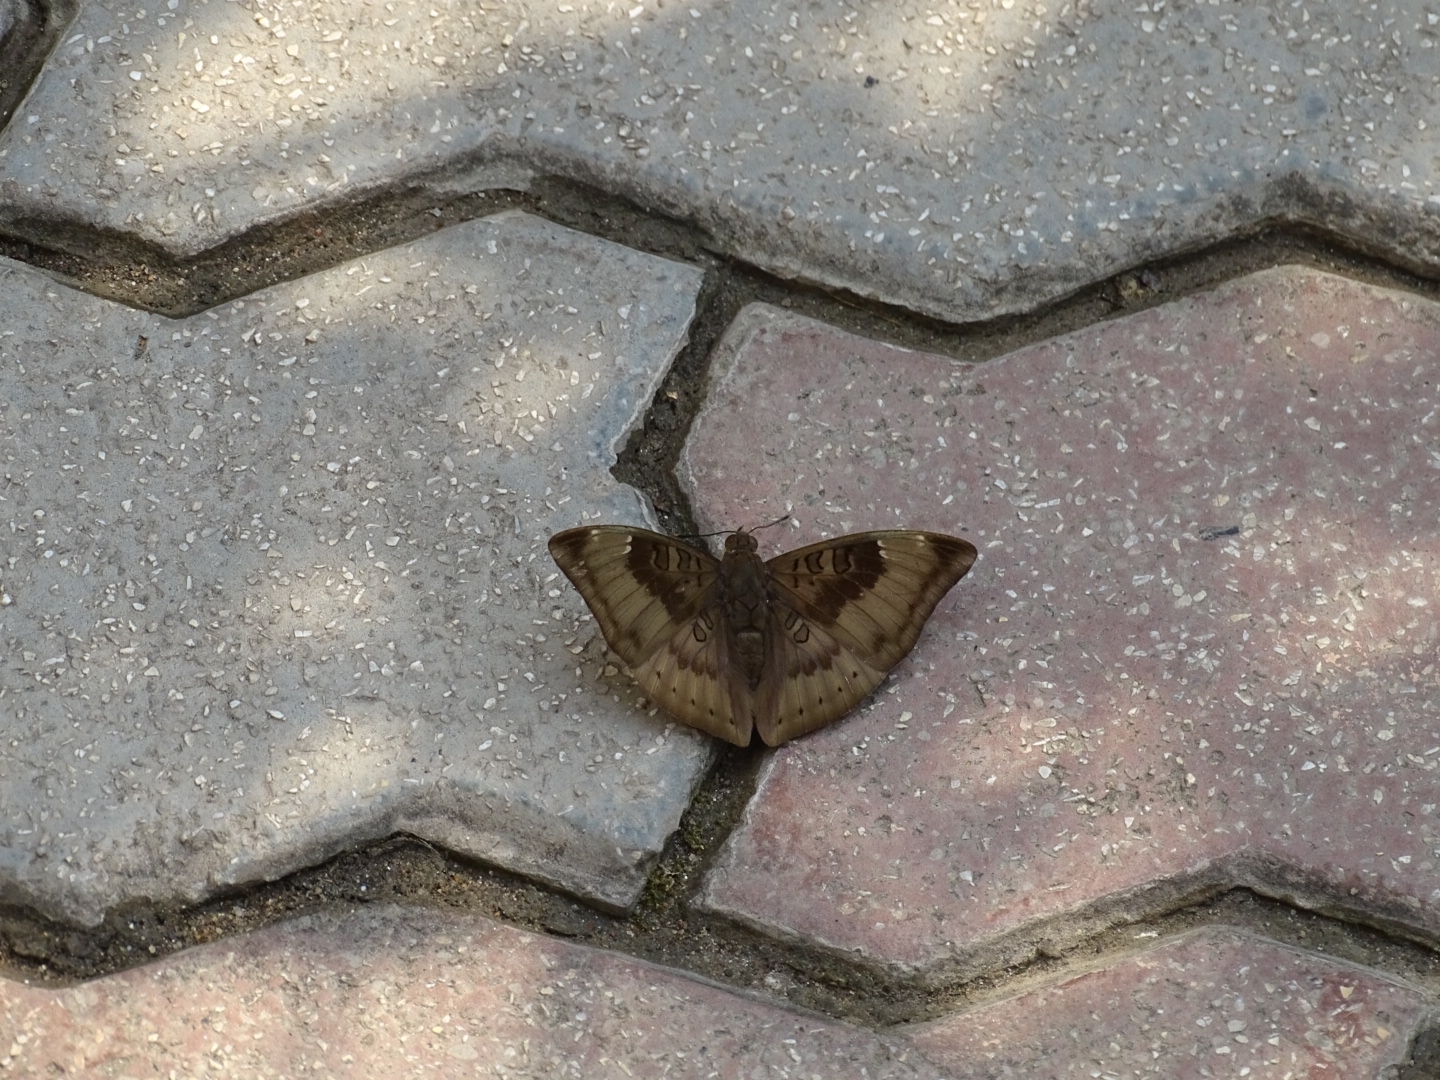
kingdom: Animalia
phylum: Arthropoda
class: Insecta
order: Lepidoptera
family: Nymphalidae
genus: Euthalia
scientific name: Euthalia aconthea
